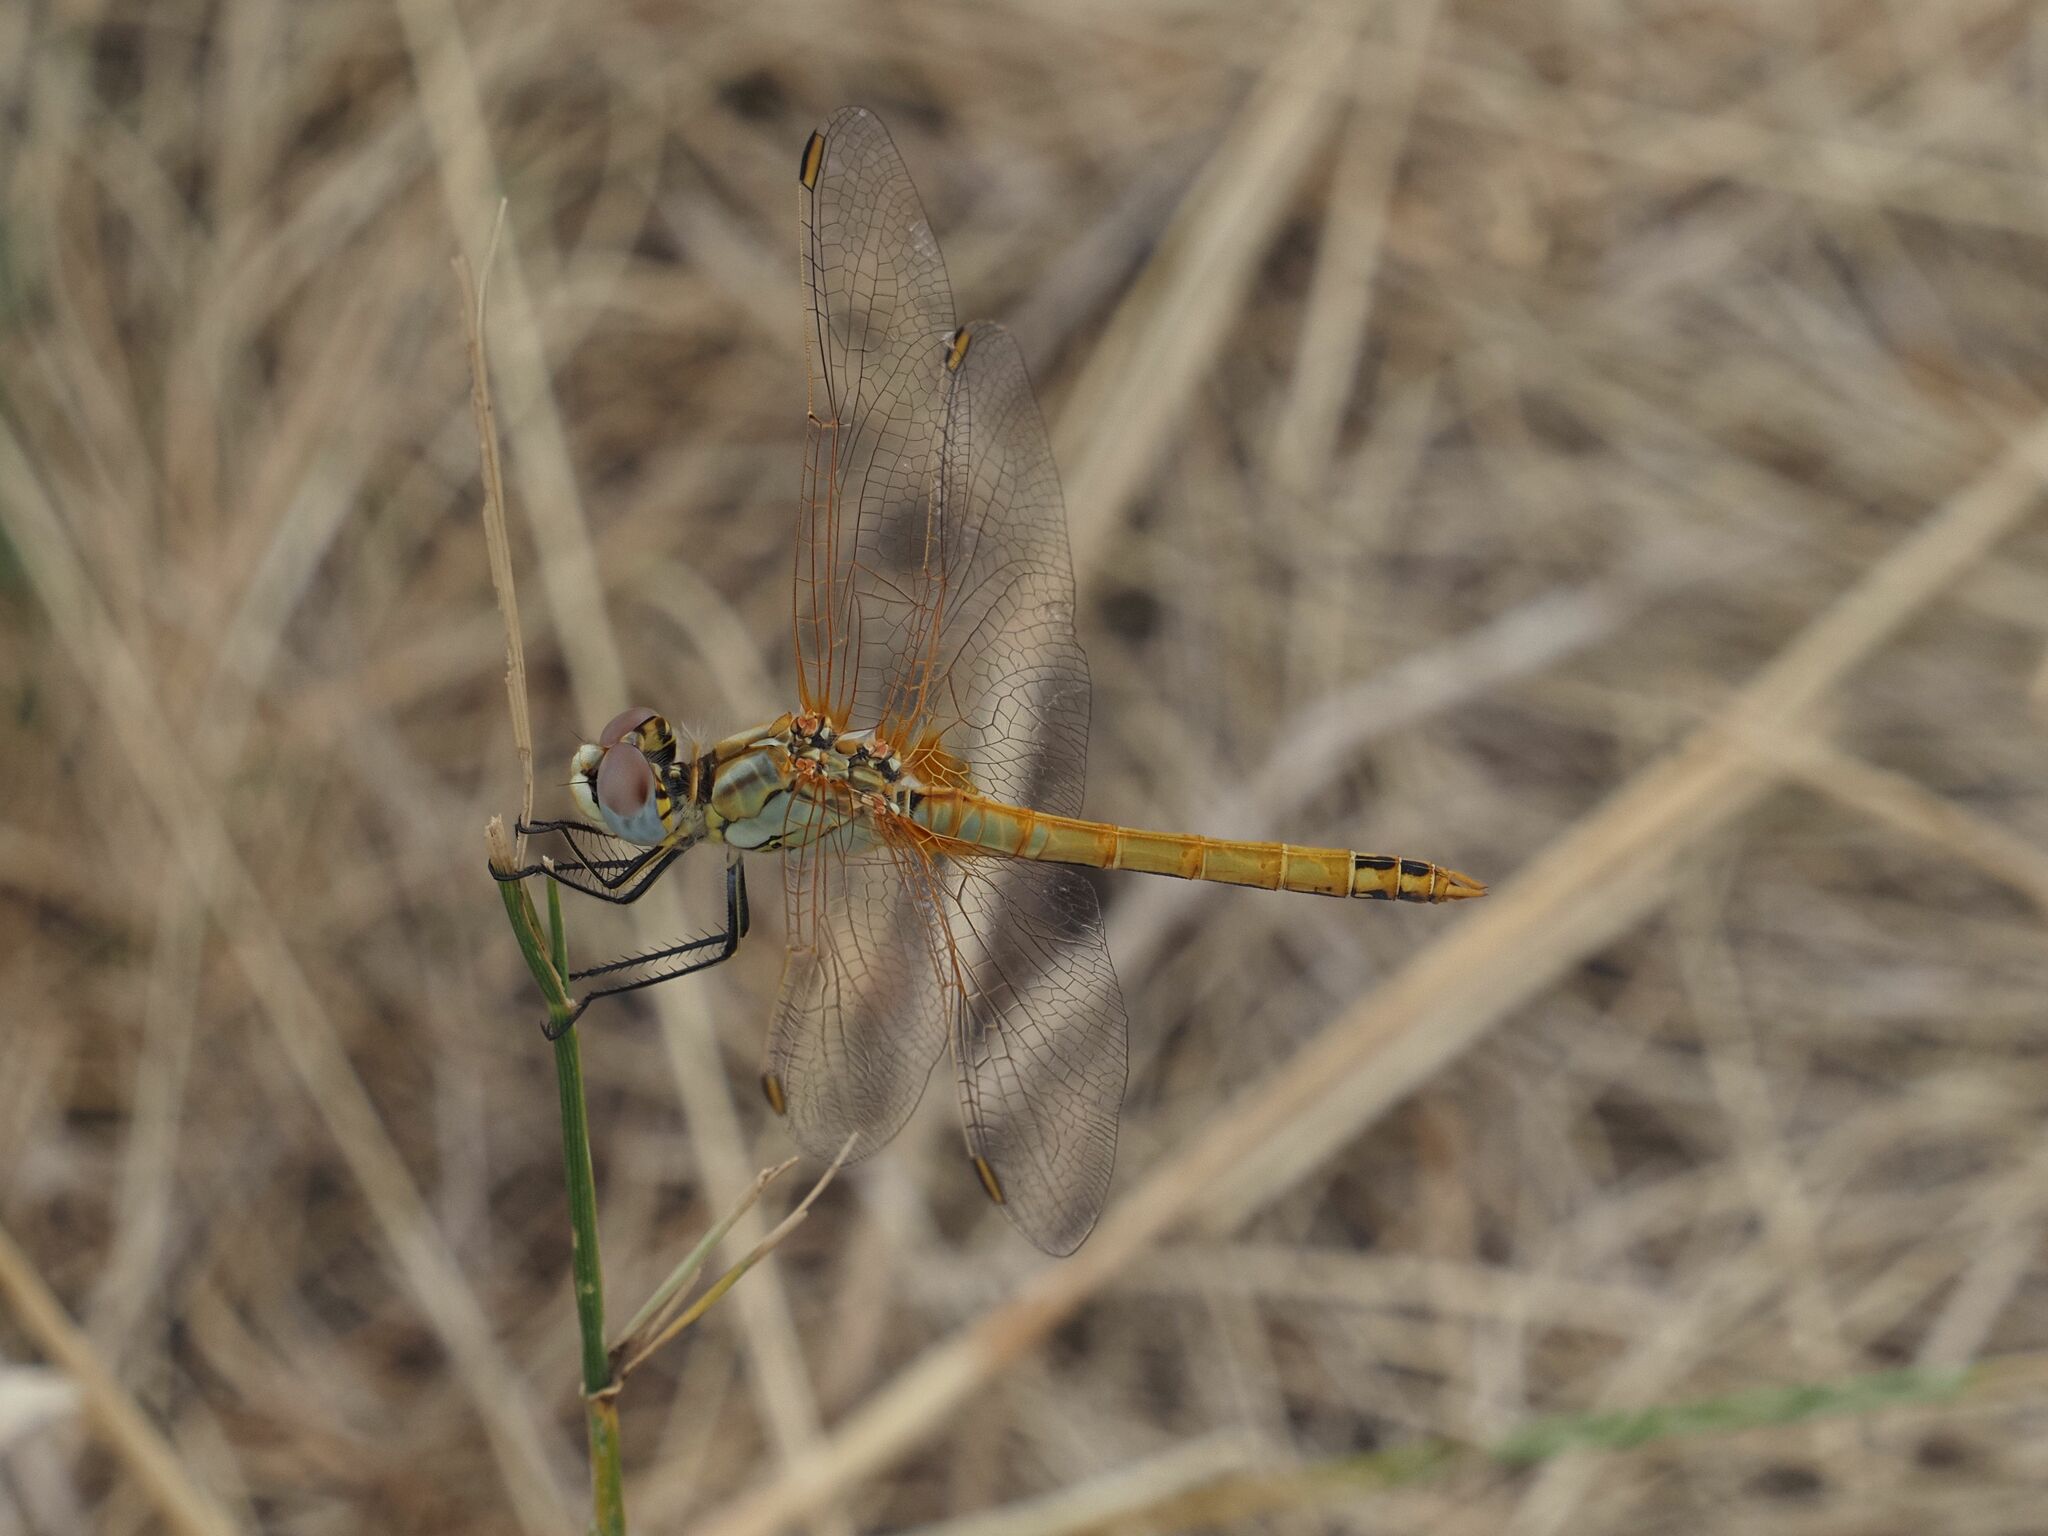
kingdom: Animalia
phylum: Arthropoda
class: Insecta
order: Odonata
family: Libellulidae
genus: Sympetrum
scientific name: Sympetrum fonscolombii
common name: Red-veined darter
